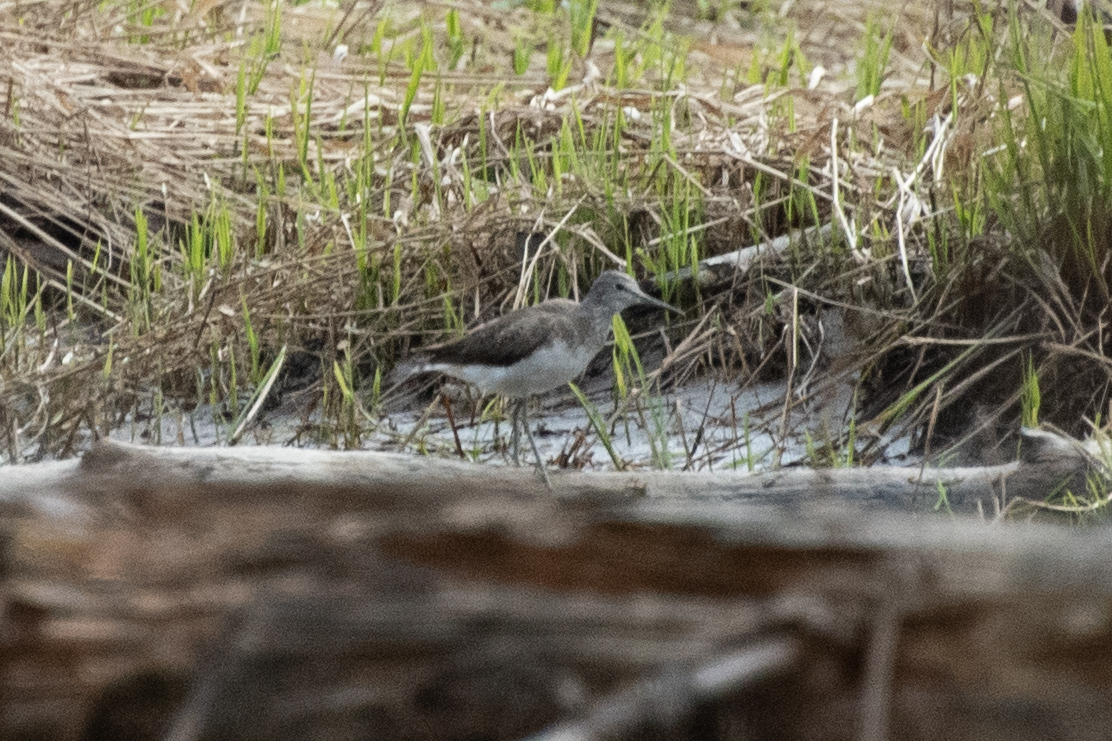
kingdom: Animalia
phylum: Chordata
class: Aves
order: Charadriiformes
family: Scolopacidae
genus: Tringa
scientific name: Tringa ochropus
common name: Green sandpiper
